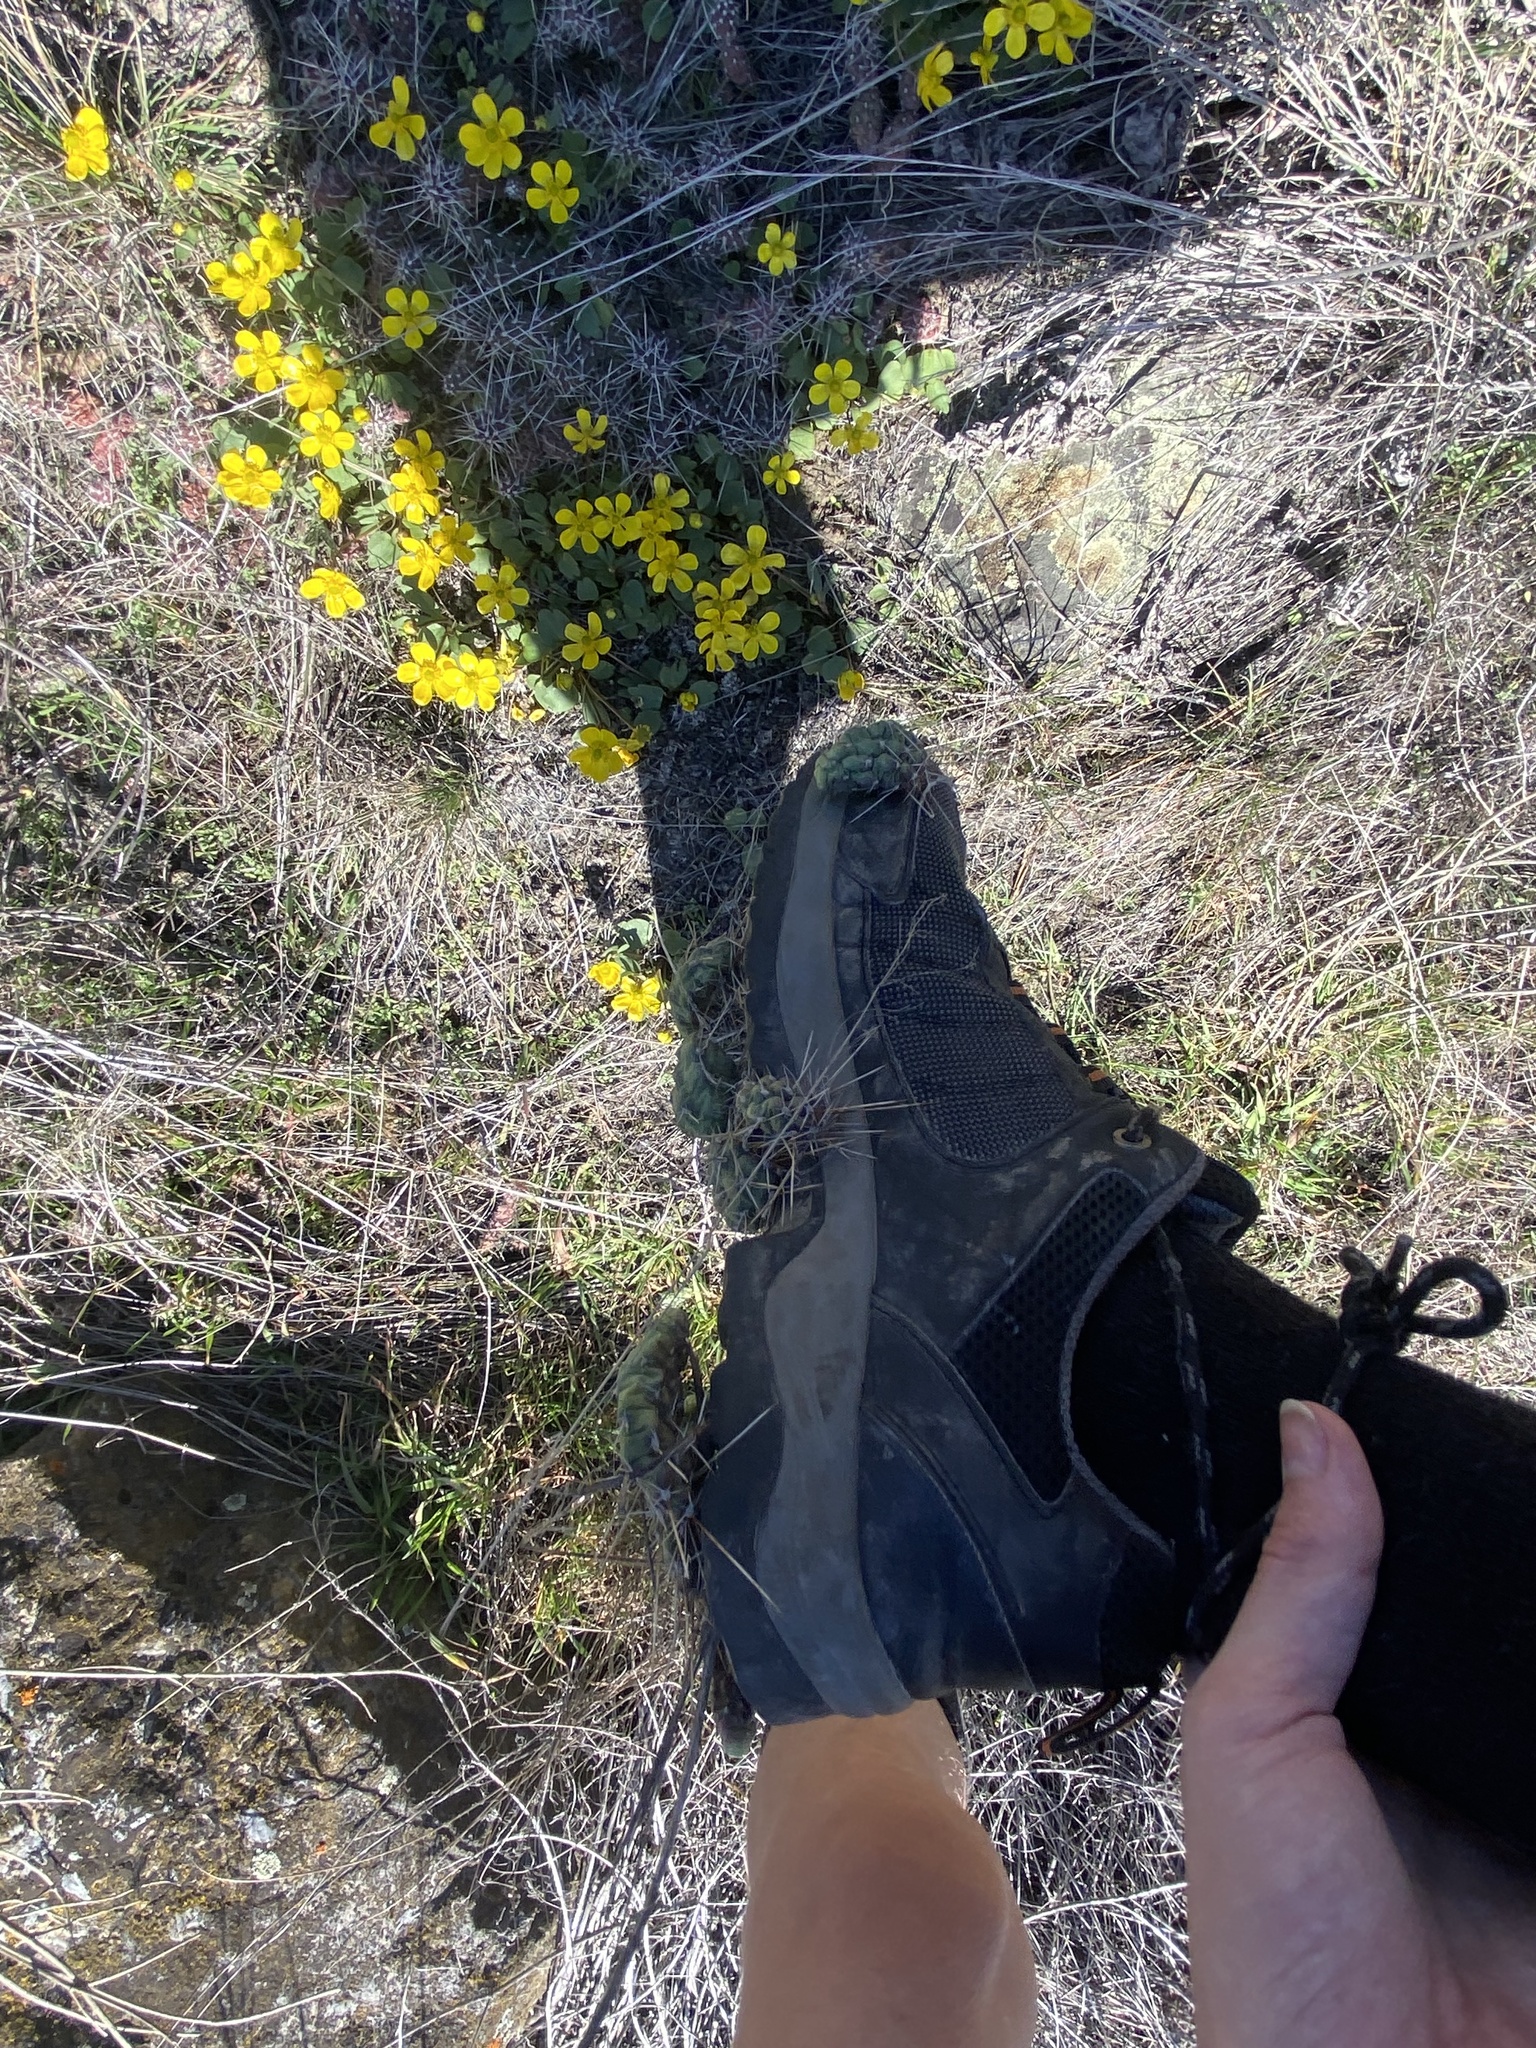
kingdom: Plantae
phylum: Tracheophyta
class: Magnoliopsida
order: Caryophyllales
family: Cactaceae
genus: Opuntia
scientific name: Opuntia fragilis
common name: Brittle cactus
